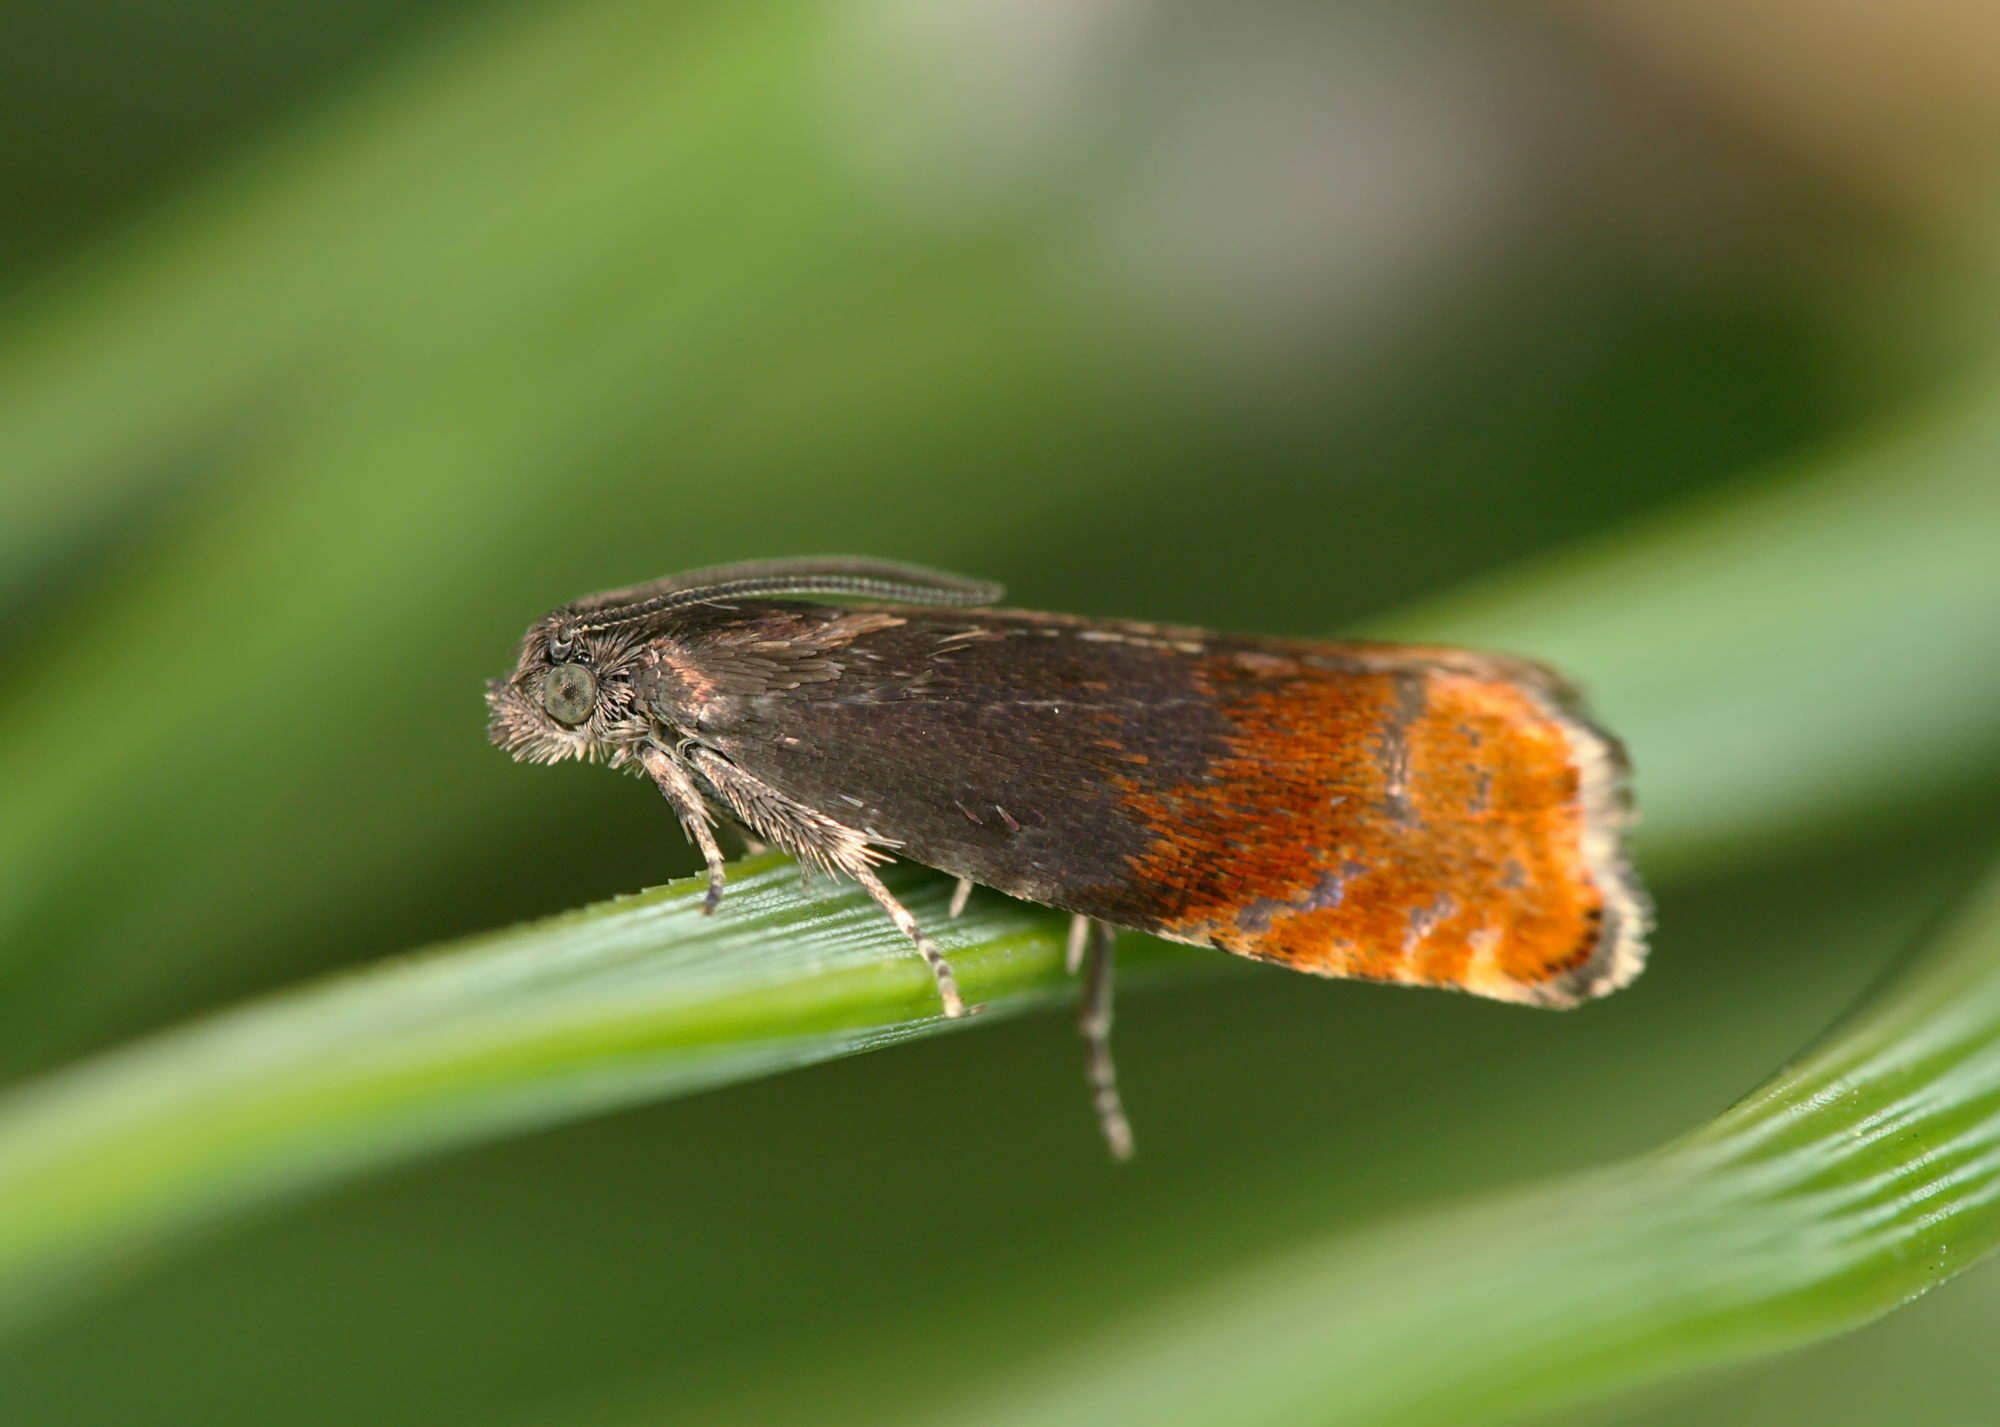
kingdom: Animalia
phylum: Arthropoda
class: Insecta
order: Lepidoptera
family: Tortricidae
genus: Pammene
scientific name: Pammene rhediella
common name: Fruitlet-mining tortrix
